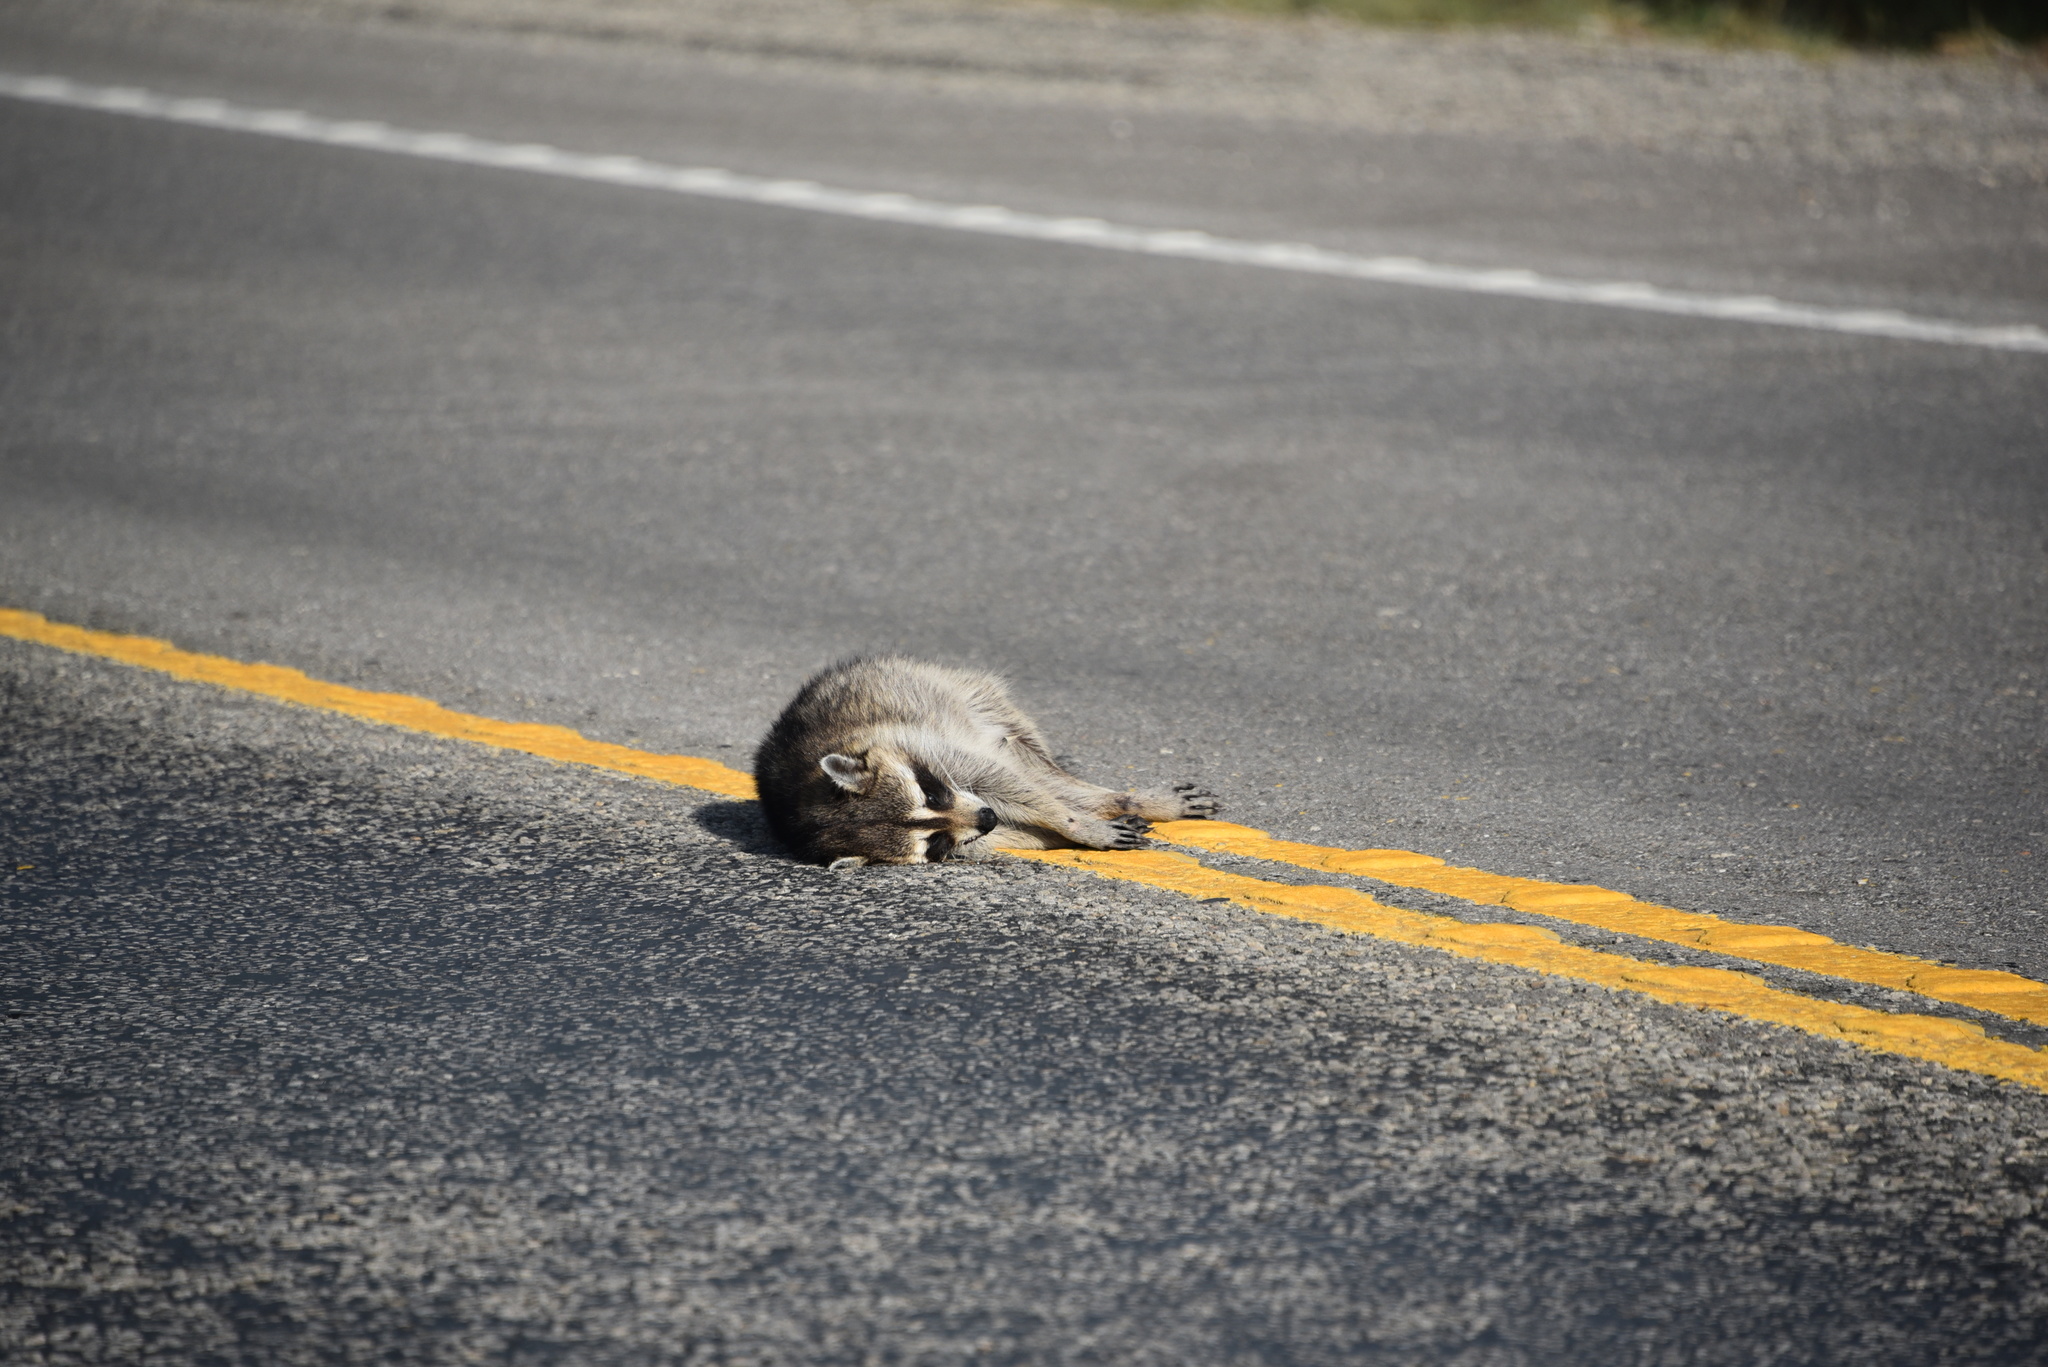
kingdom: Animalia
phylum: Chordata
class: Mammalia
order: Carnivora
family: Procyonidae
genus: Procyon
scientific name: Procyon lotor
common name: Raccoon
